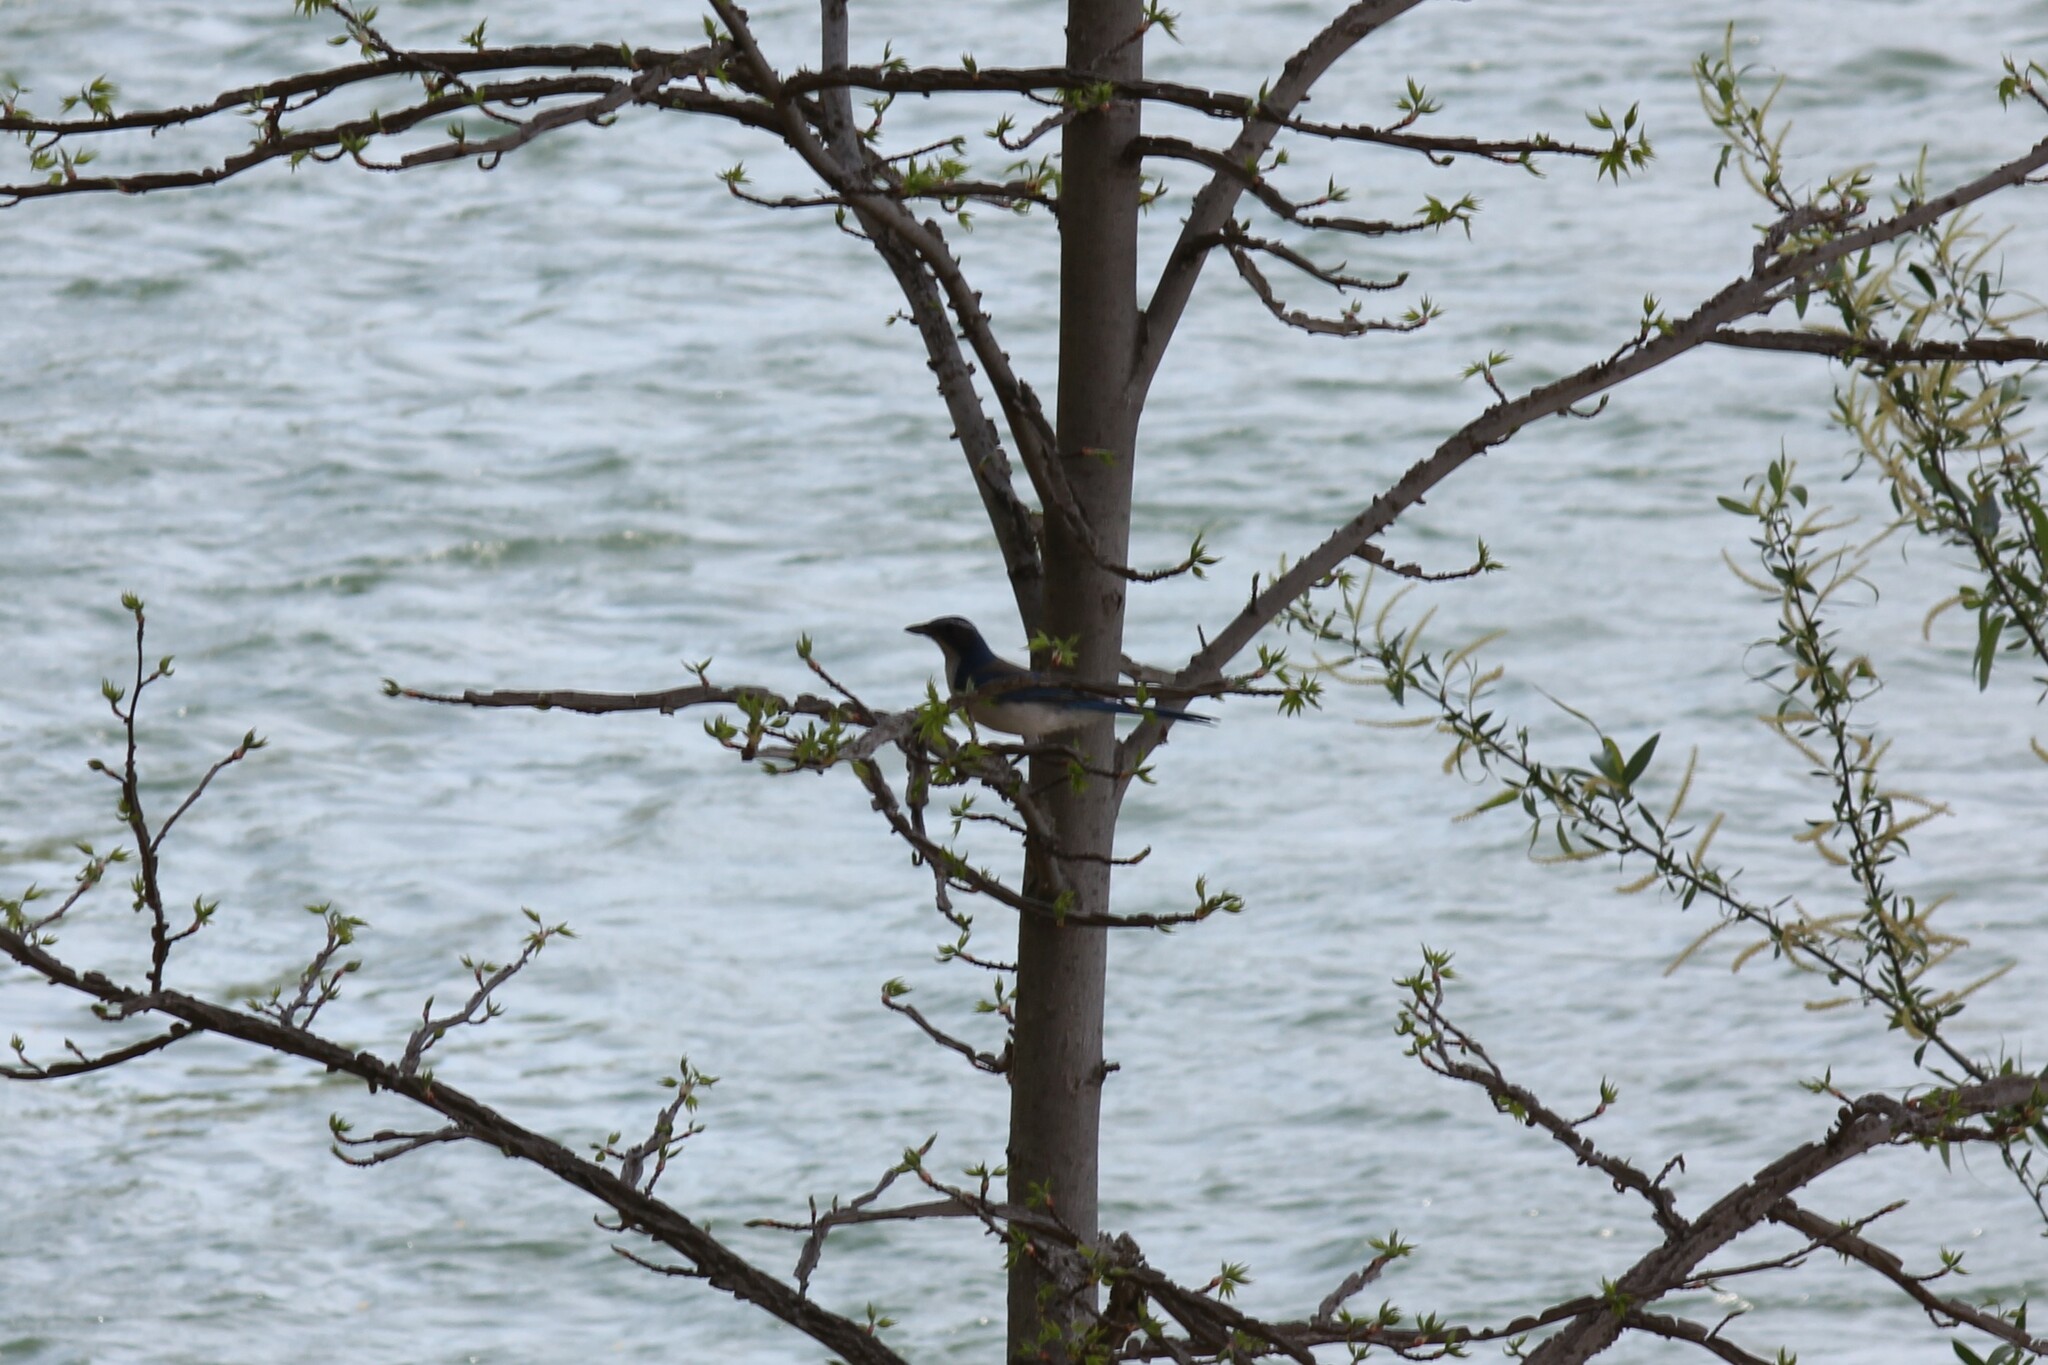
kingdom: Animalia
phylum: Chordata
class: Aves
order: Passeriformes
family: Corvidae
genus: Aphelocoma
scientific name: Aphelocoma californica
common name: California scrub-jay
